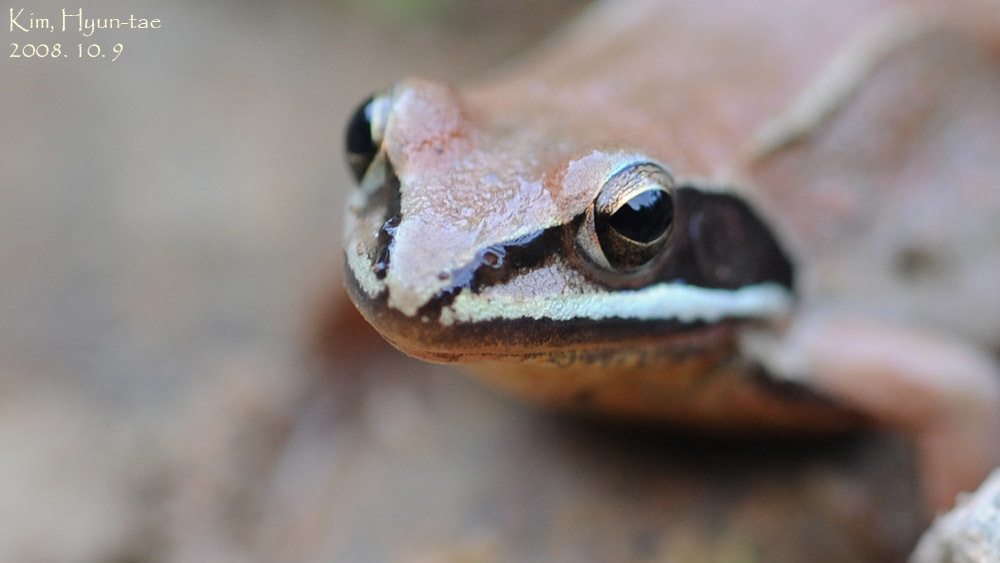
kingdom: Animalia
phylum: Chordata
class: Amphibia
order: Anura
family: Ranidae
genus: Rana
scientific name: Rana coreana
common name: Korean brown frog
